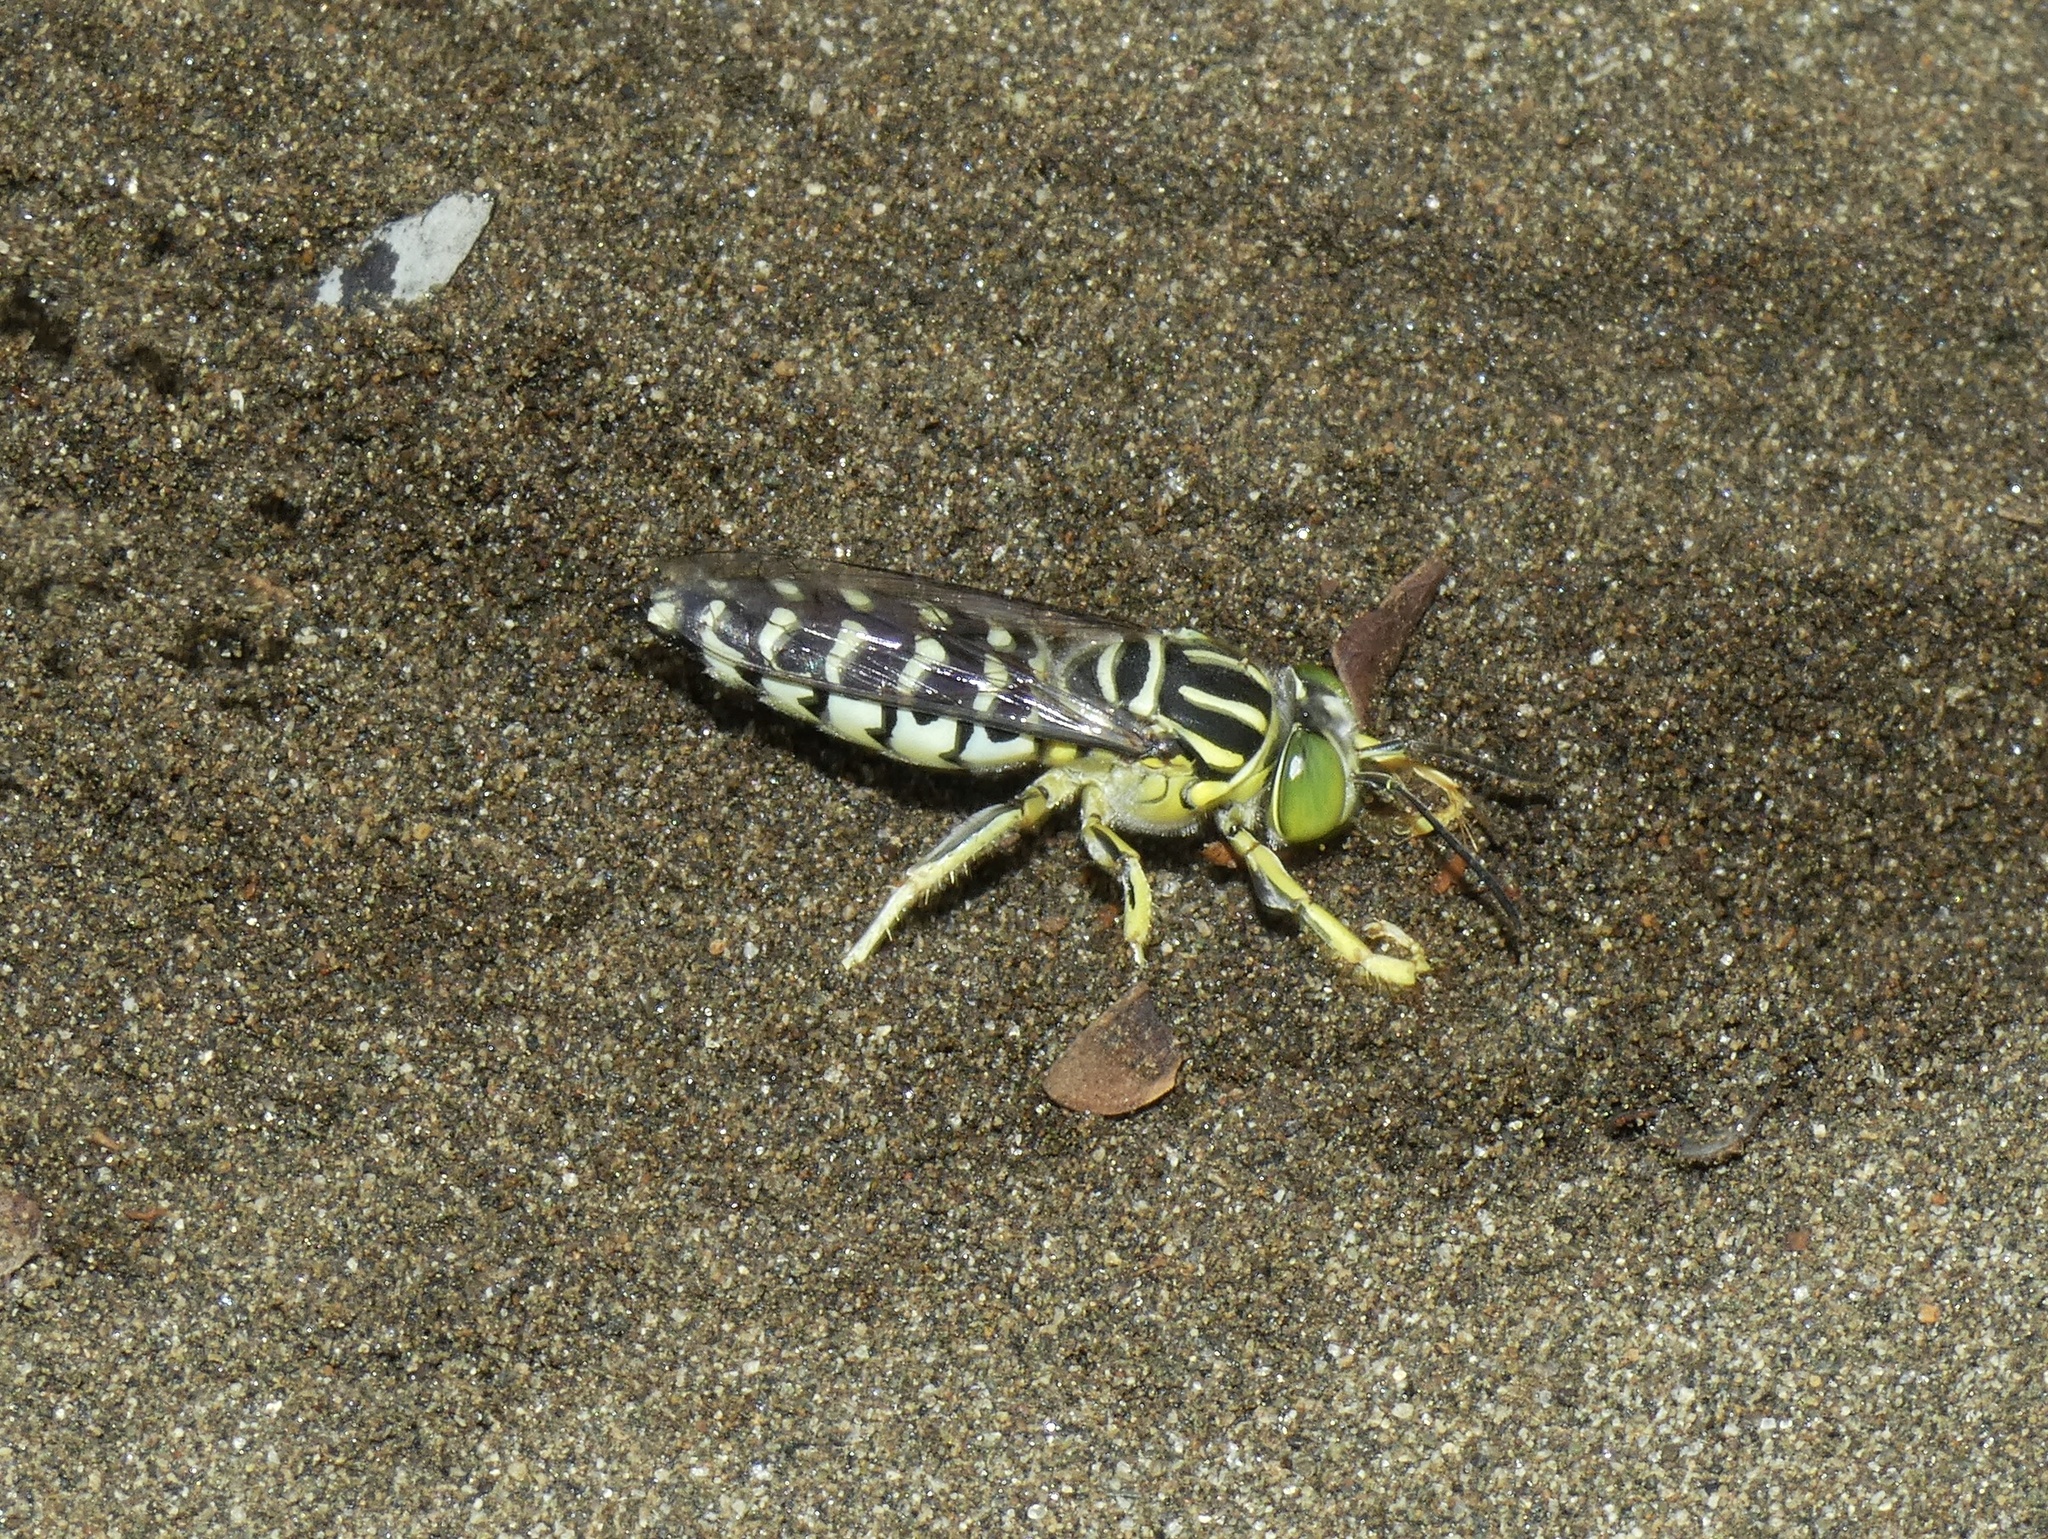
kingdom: Animalia
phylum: Arthropoda
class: Insecta
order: Hymenoptera
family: Crabronidae
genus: Stictia
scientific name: Stictia signata
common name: Sand wasp
